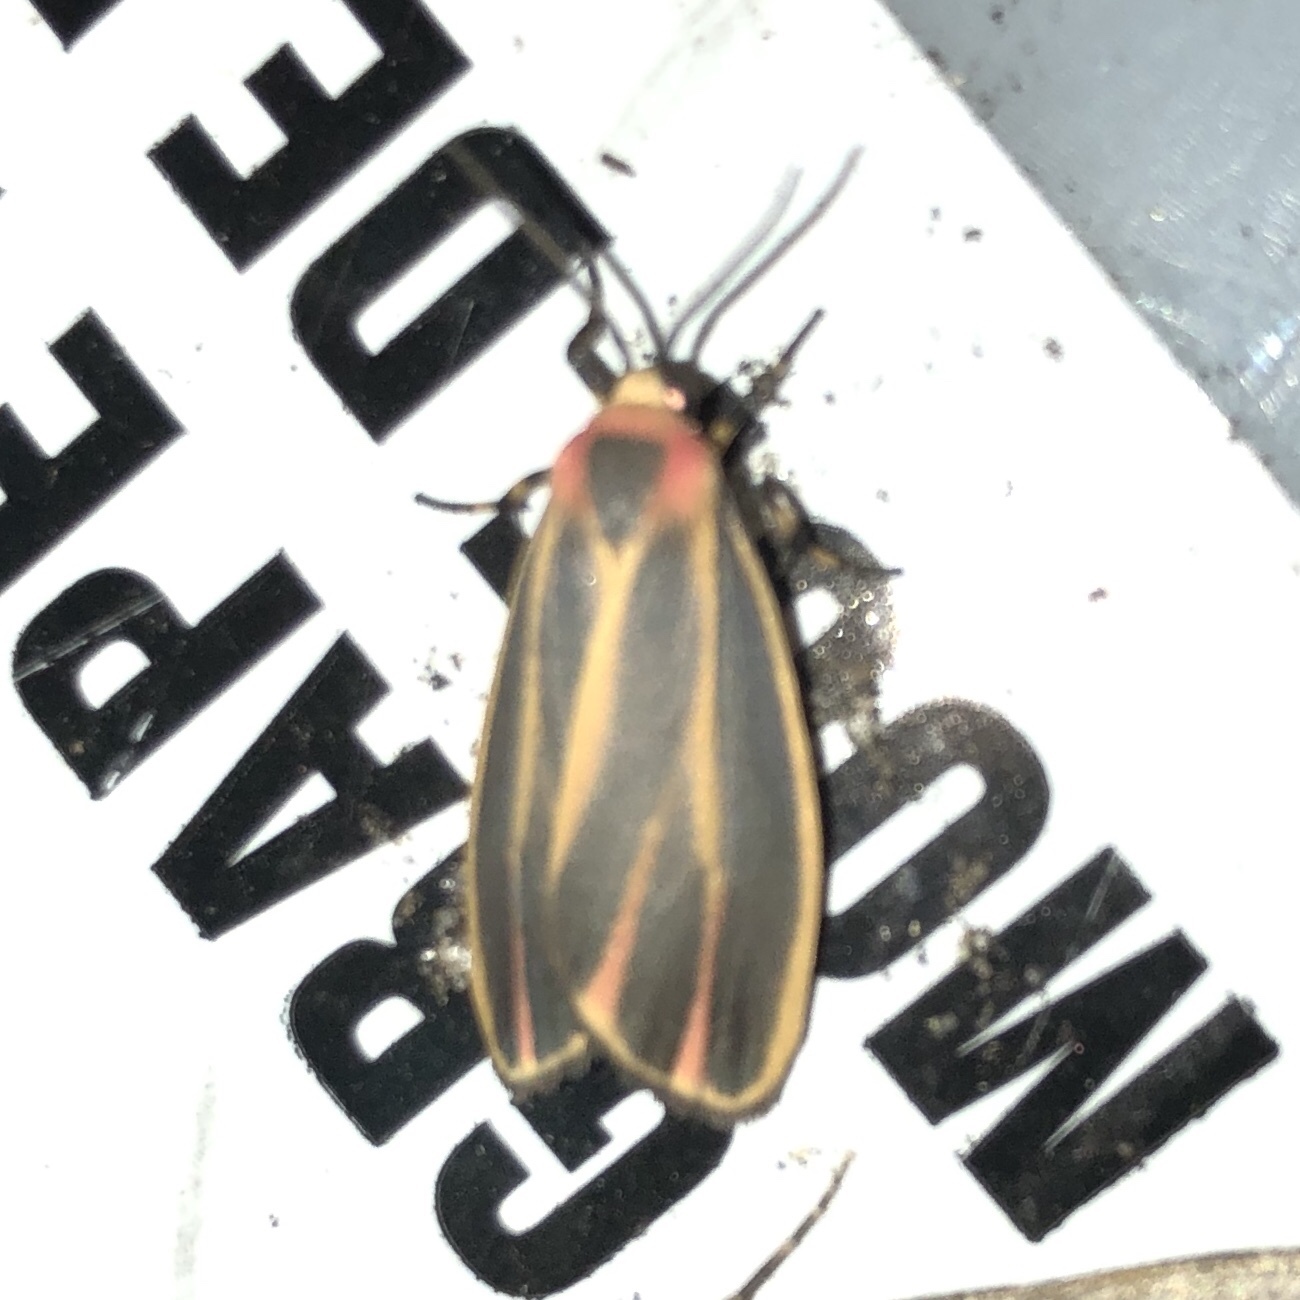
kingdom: Animalia
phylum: Arthropoda
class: Insecta
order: Lepidoptera
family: Erebidae
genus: Hypoprepia
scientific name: Hypoprepia fucosa
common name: Painted lichen moth
